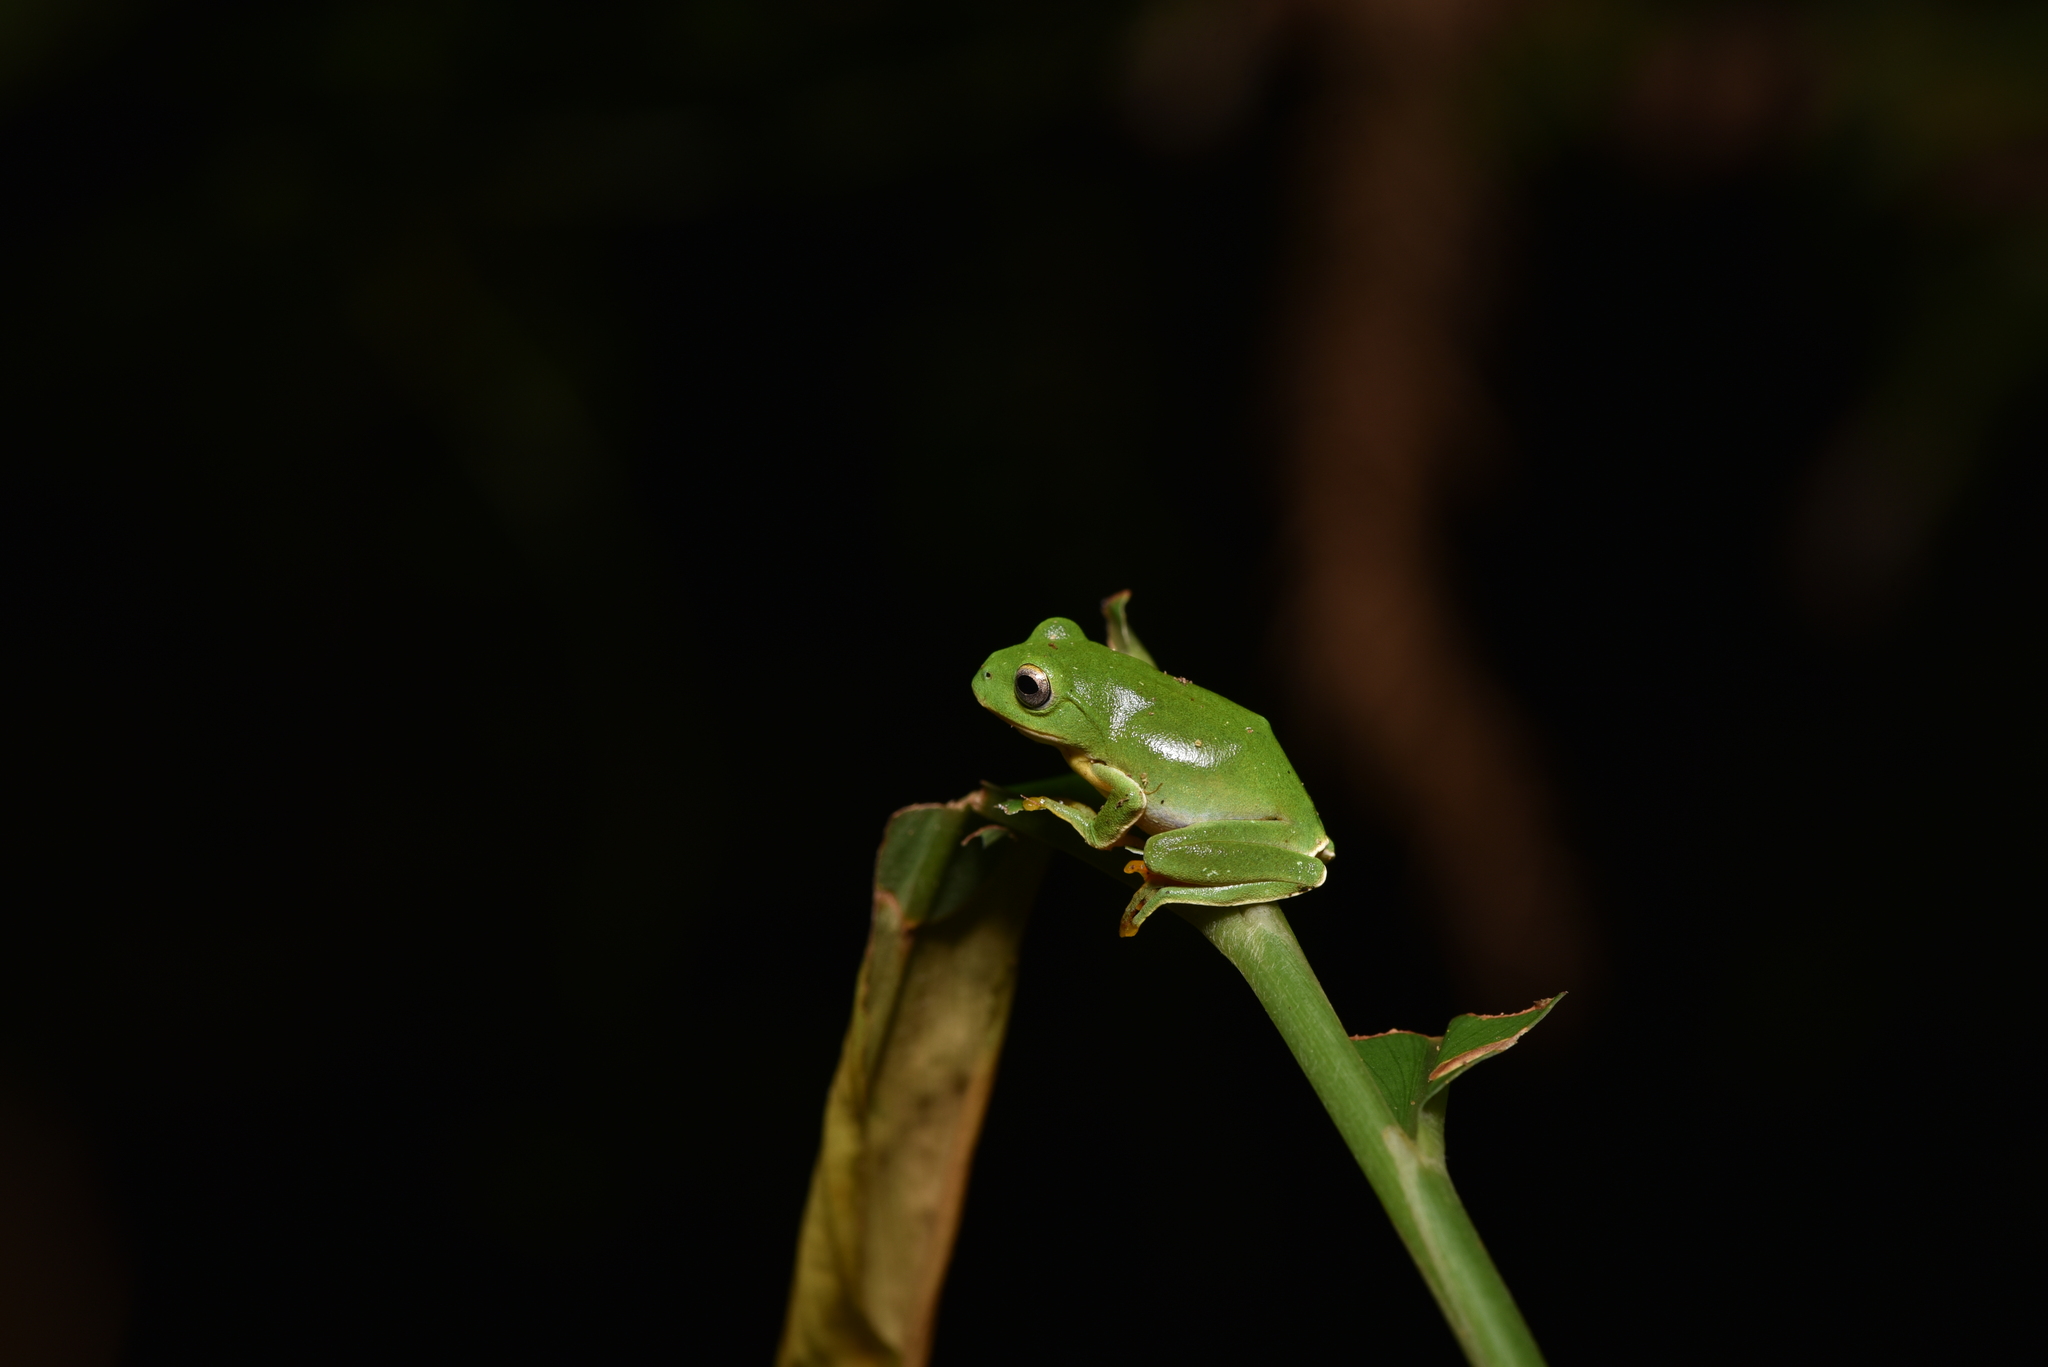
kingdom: Animalia
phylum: Chordata
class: Amphibia
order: Anura
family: Rhacophoridae
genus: Zhangixalus
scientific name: Zhangixalus moltrechti
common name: Moltrecht's treefrog
